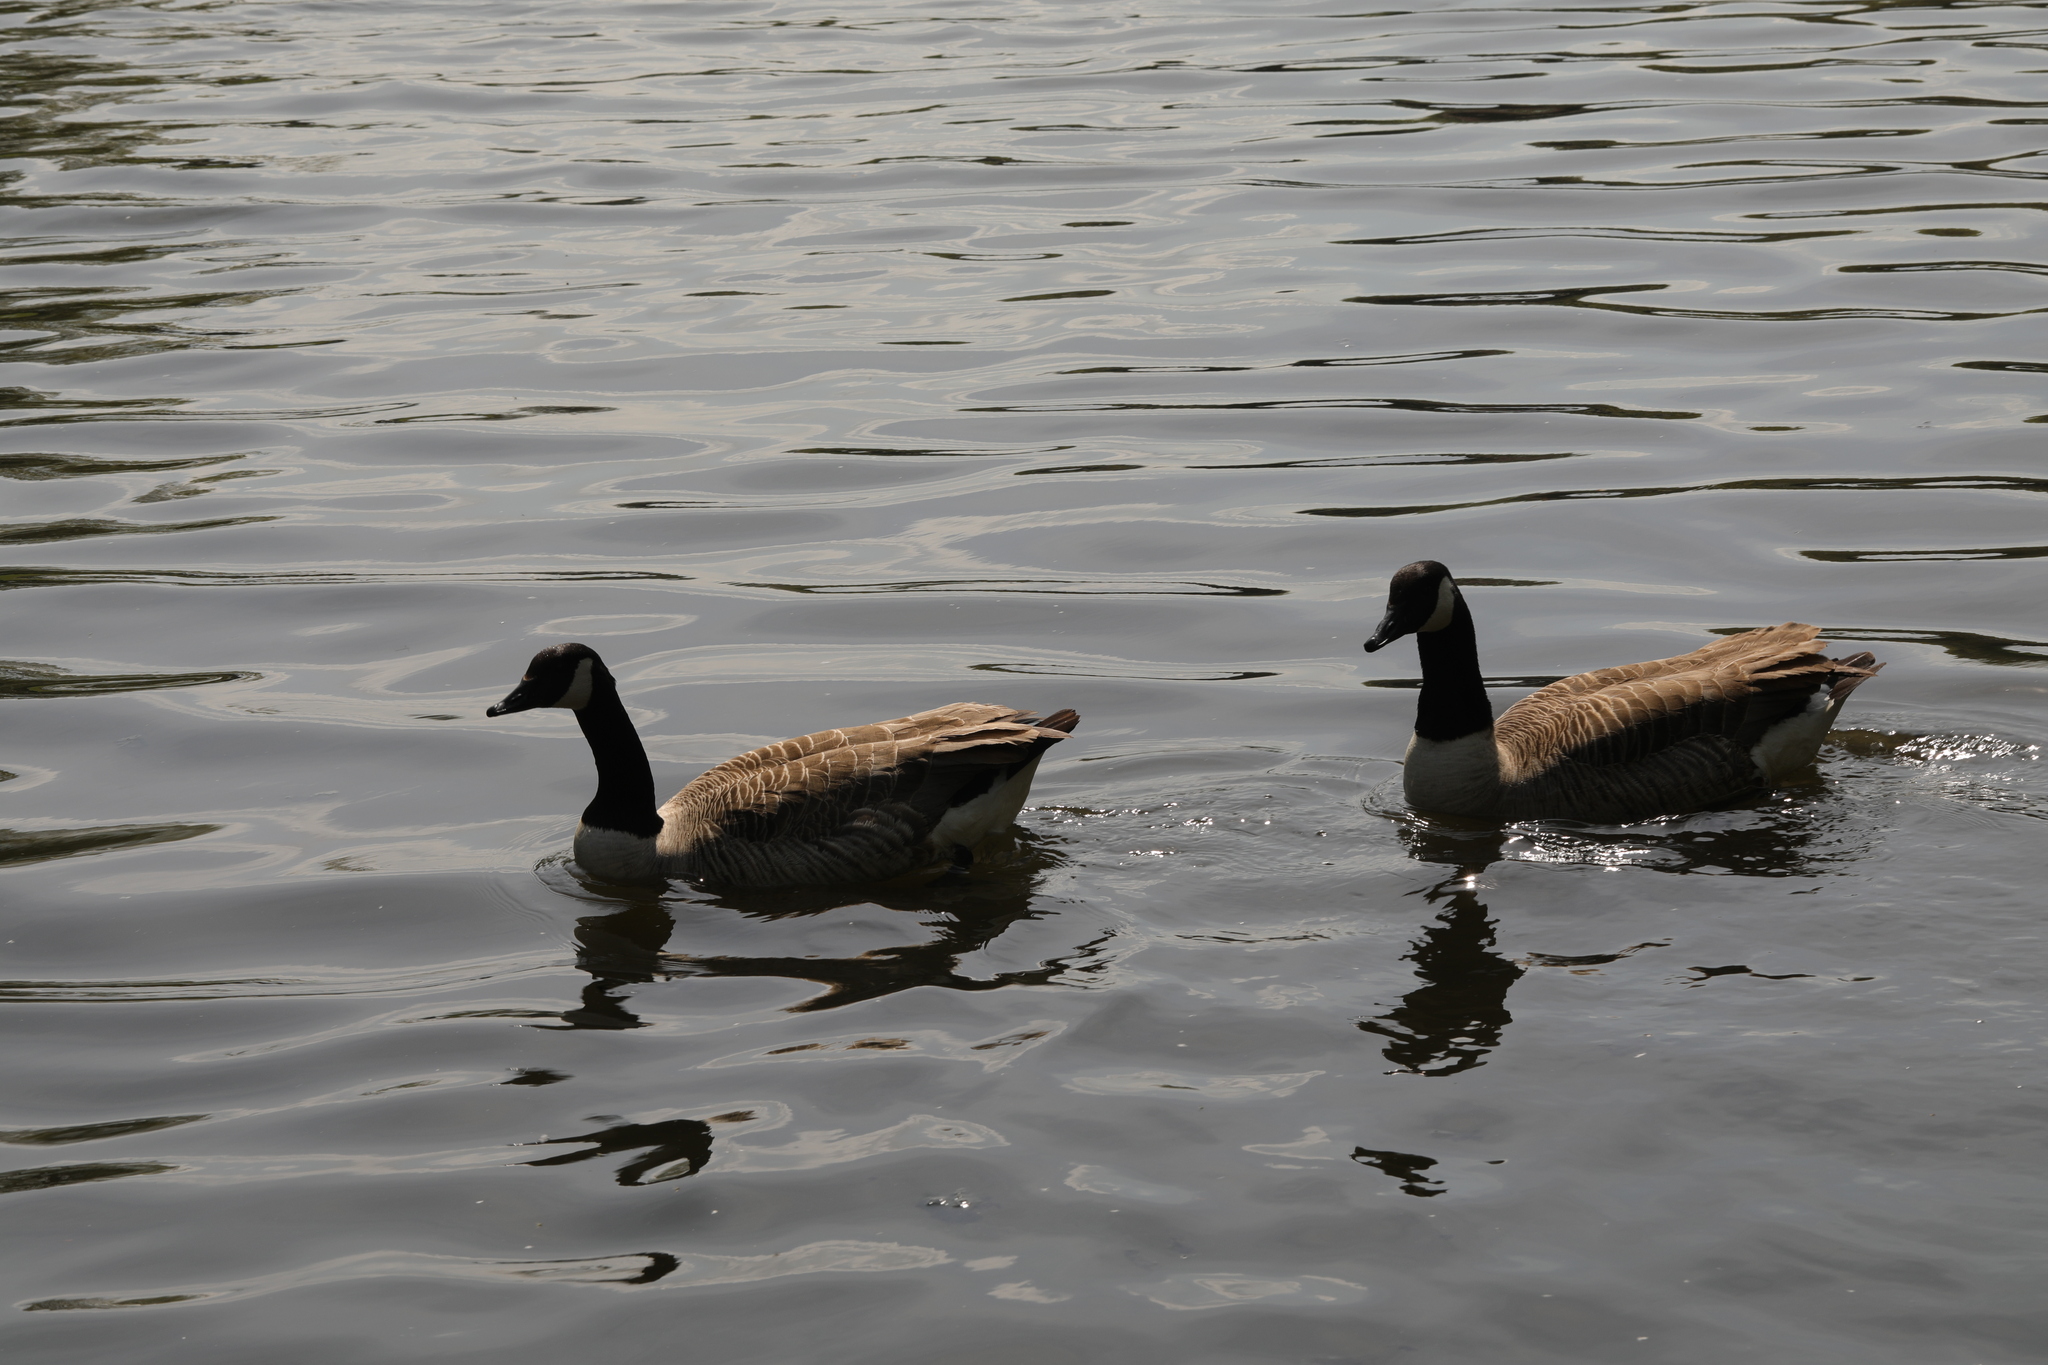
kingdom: Animalia
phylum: Chordata
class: Aves
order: Anseriformes
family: Anatidae
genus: Branta
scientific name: Branta canadensis
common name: Canada goose
